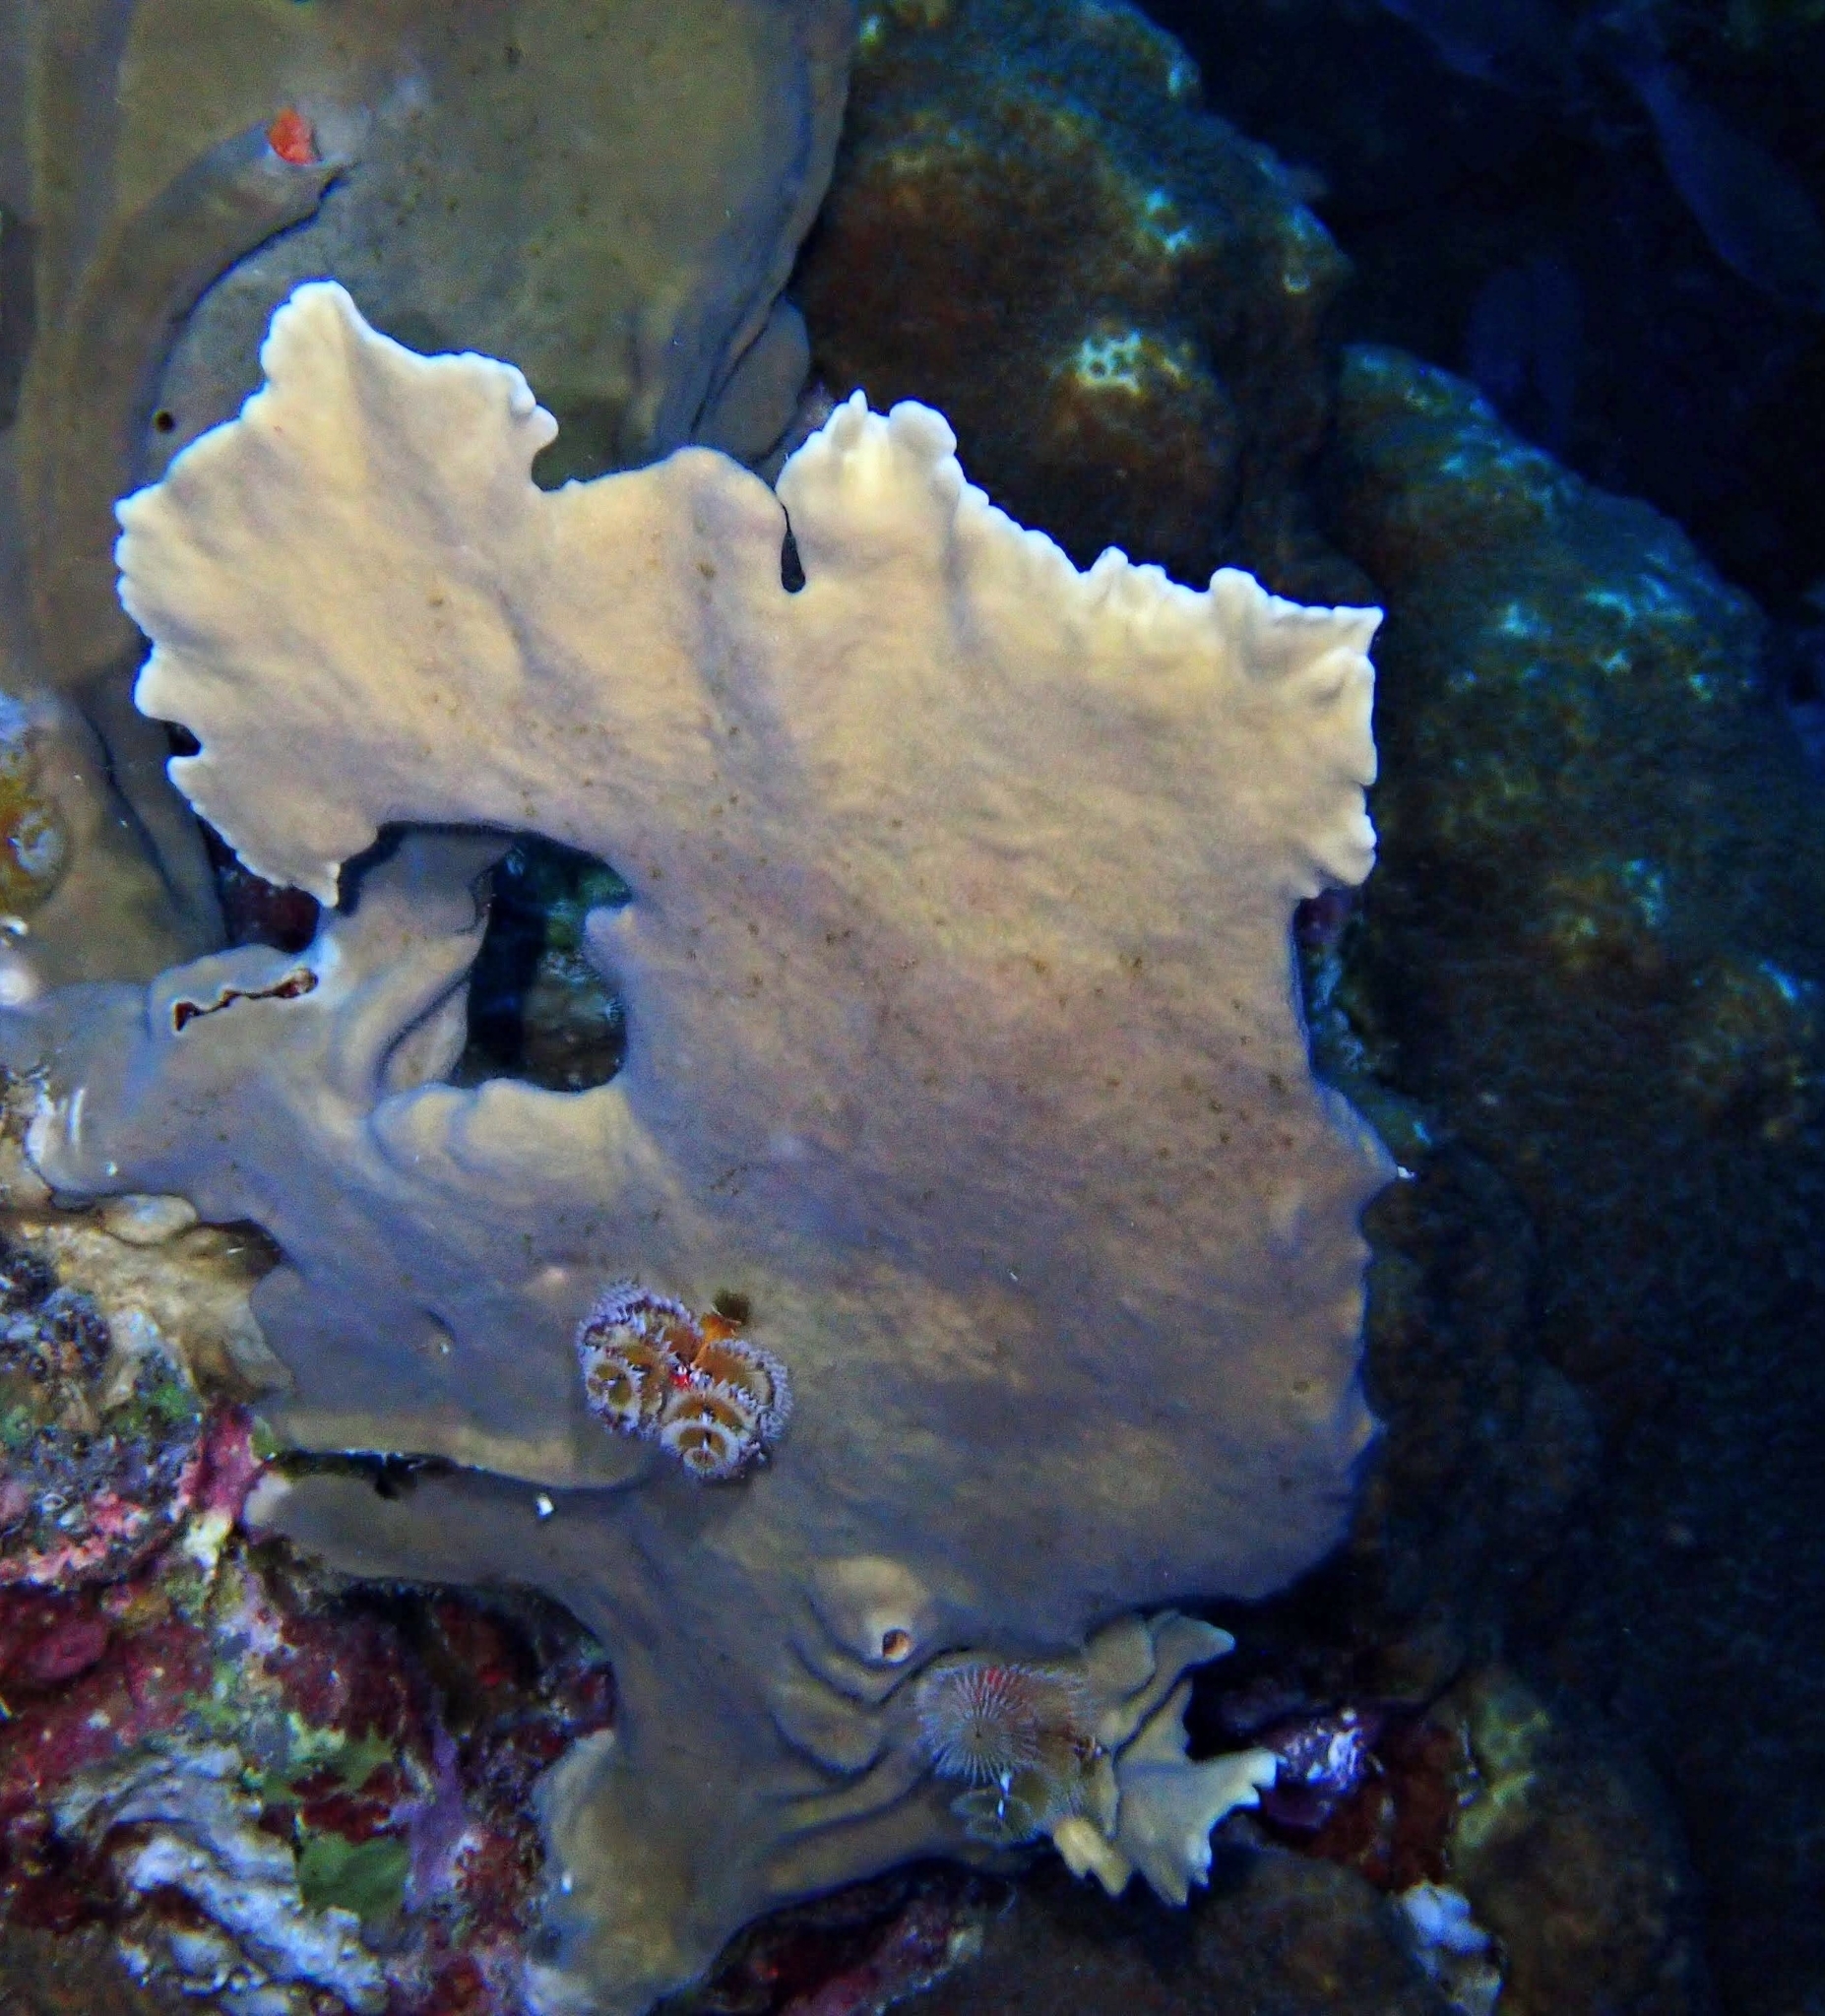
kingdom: Animalia
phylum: Cnidaria
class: Hydrozoa
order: Anthoathecata
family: Milleporidae
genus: Millepora
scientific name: Millepora complanata
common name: Bladed fire coral
